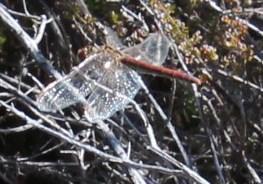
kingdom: Animalia
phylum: Arthropoda
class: Insecta
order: Odonata
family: Libellulidae
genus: Sympetrum
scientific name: Sympetrum fonscolombii
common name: Red-veined darter
